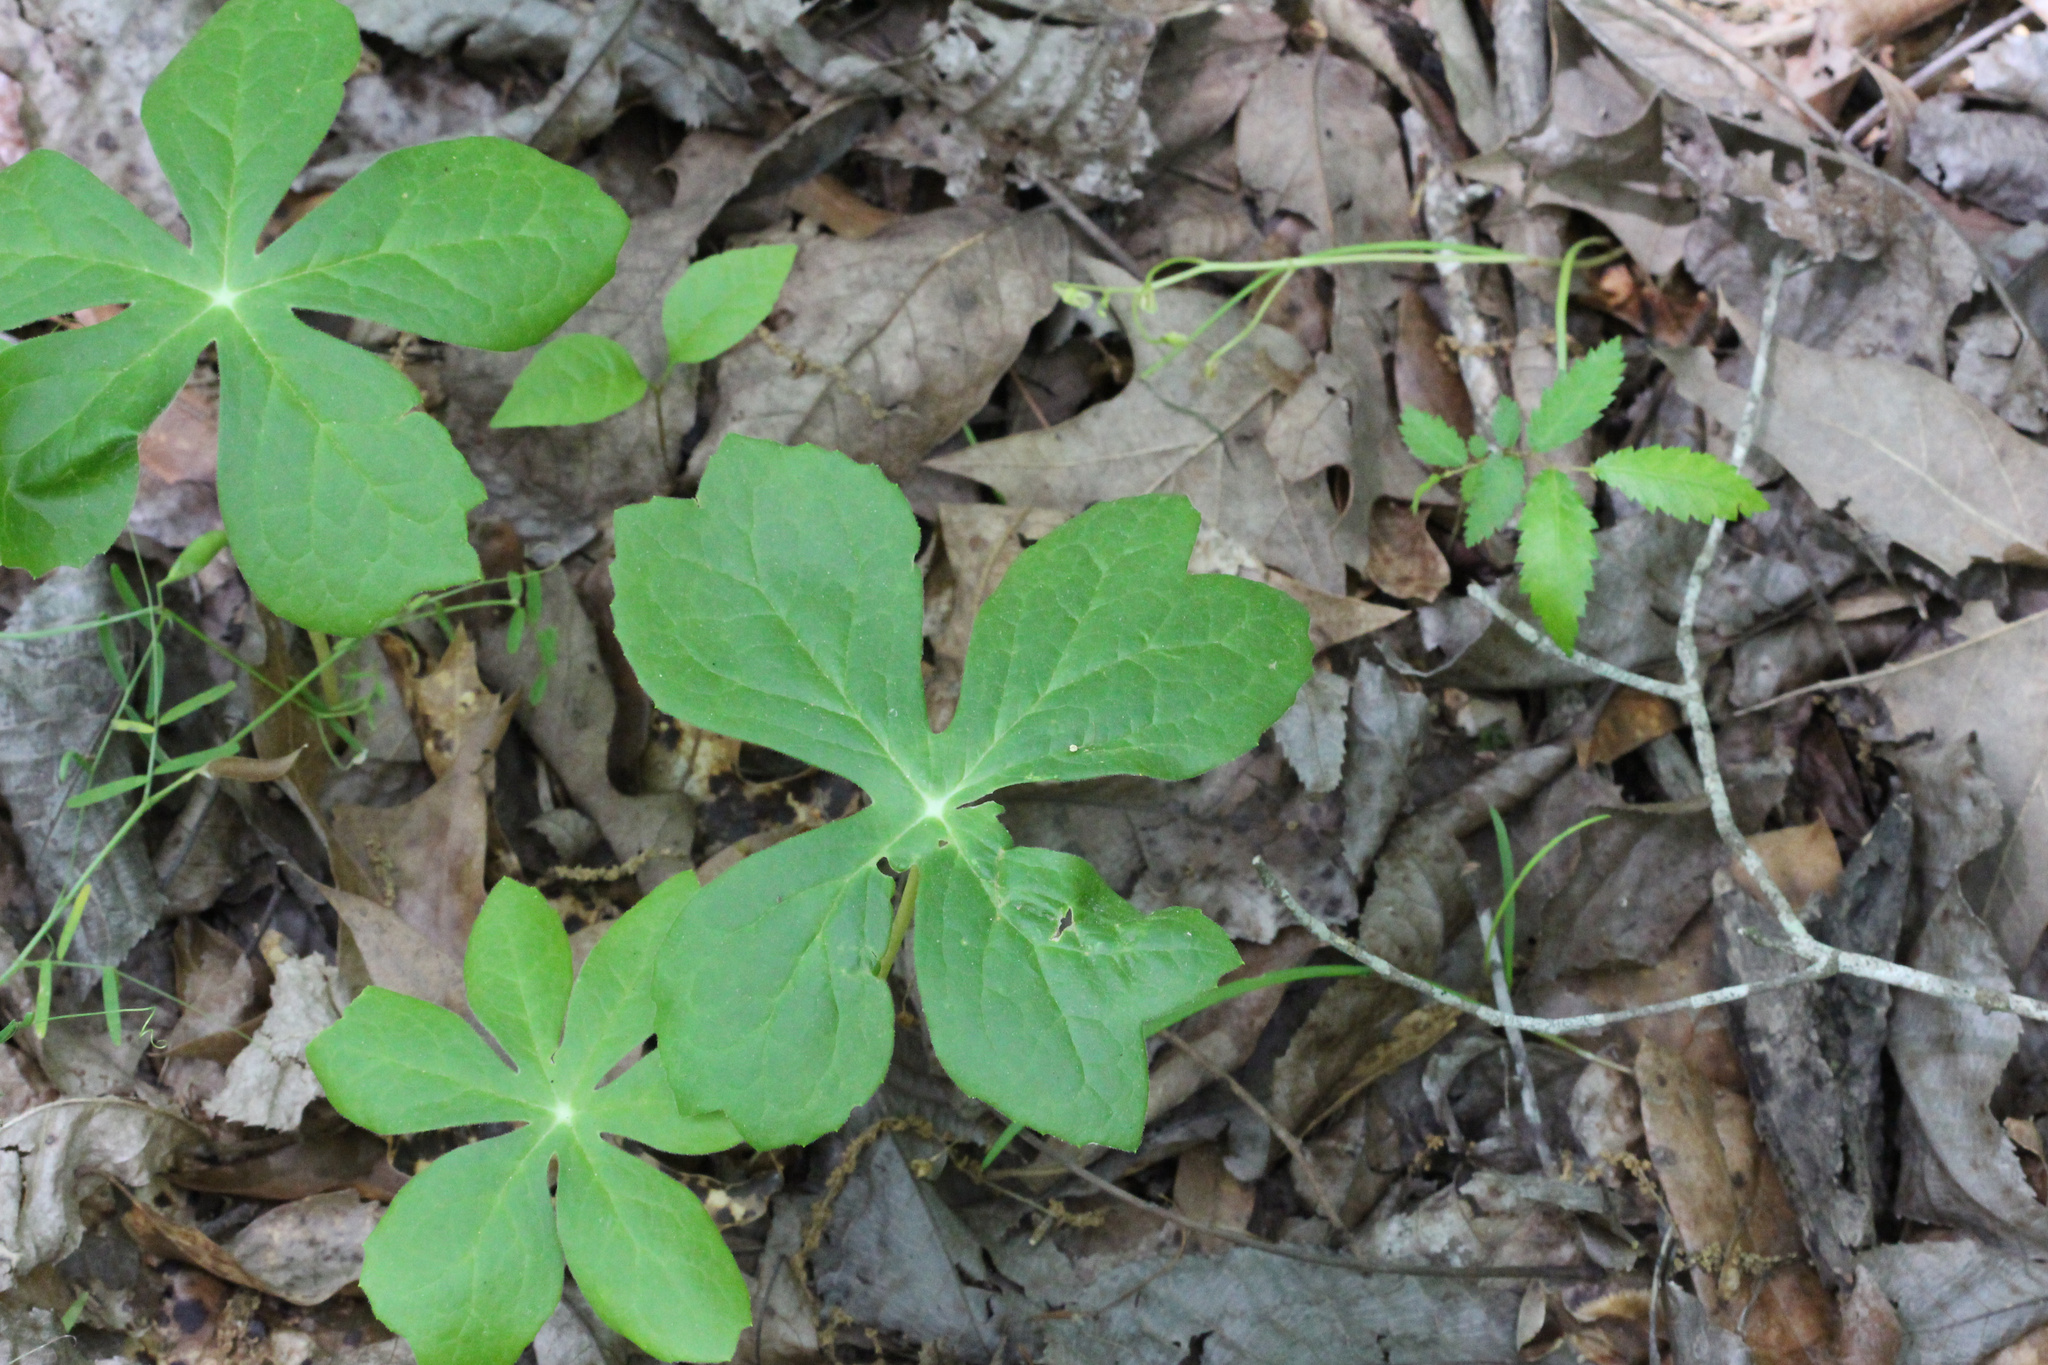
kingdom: Plantae
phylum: Tracheophyta
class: Magnoliopsida
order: Ranunculales
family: Berberidaceae
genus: Podophyllum
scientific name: Podophyllum peltatum
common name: Wild mandrake
